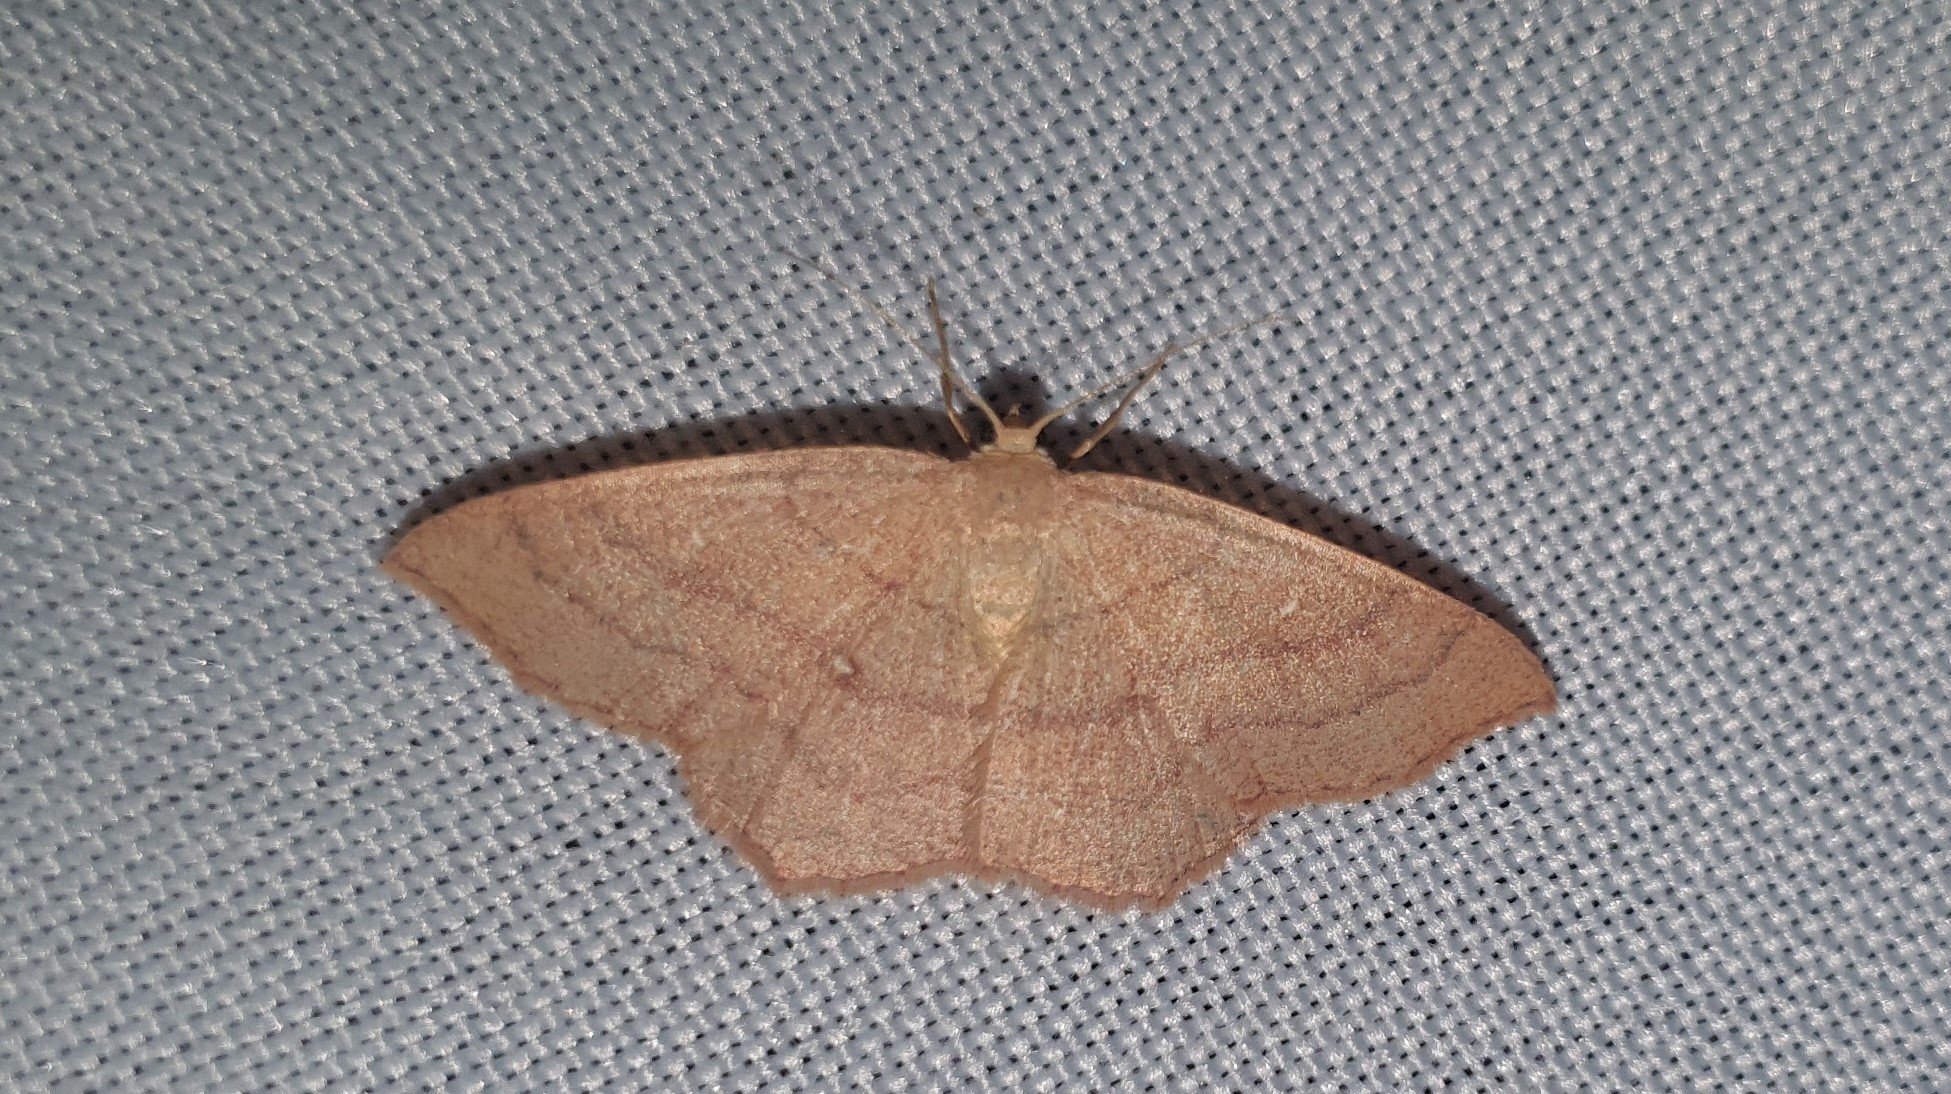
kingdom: Animalia
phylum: Arthropoda
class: Insecta
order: Lepidoptera
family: Geometridae
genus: Cyclophora
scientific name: Cyclophora linearia
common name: Clay triple-lines
